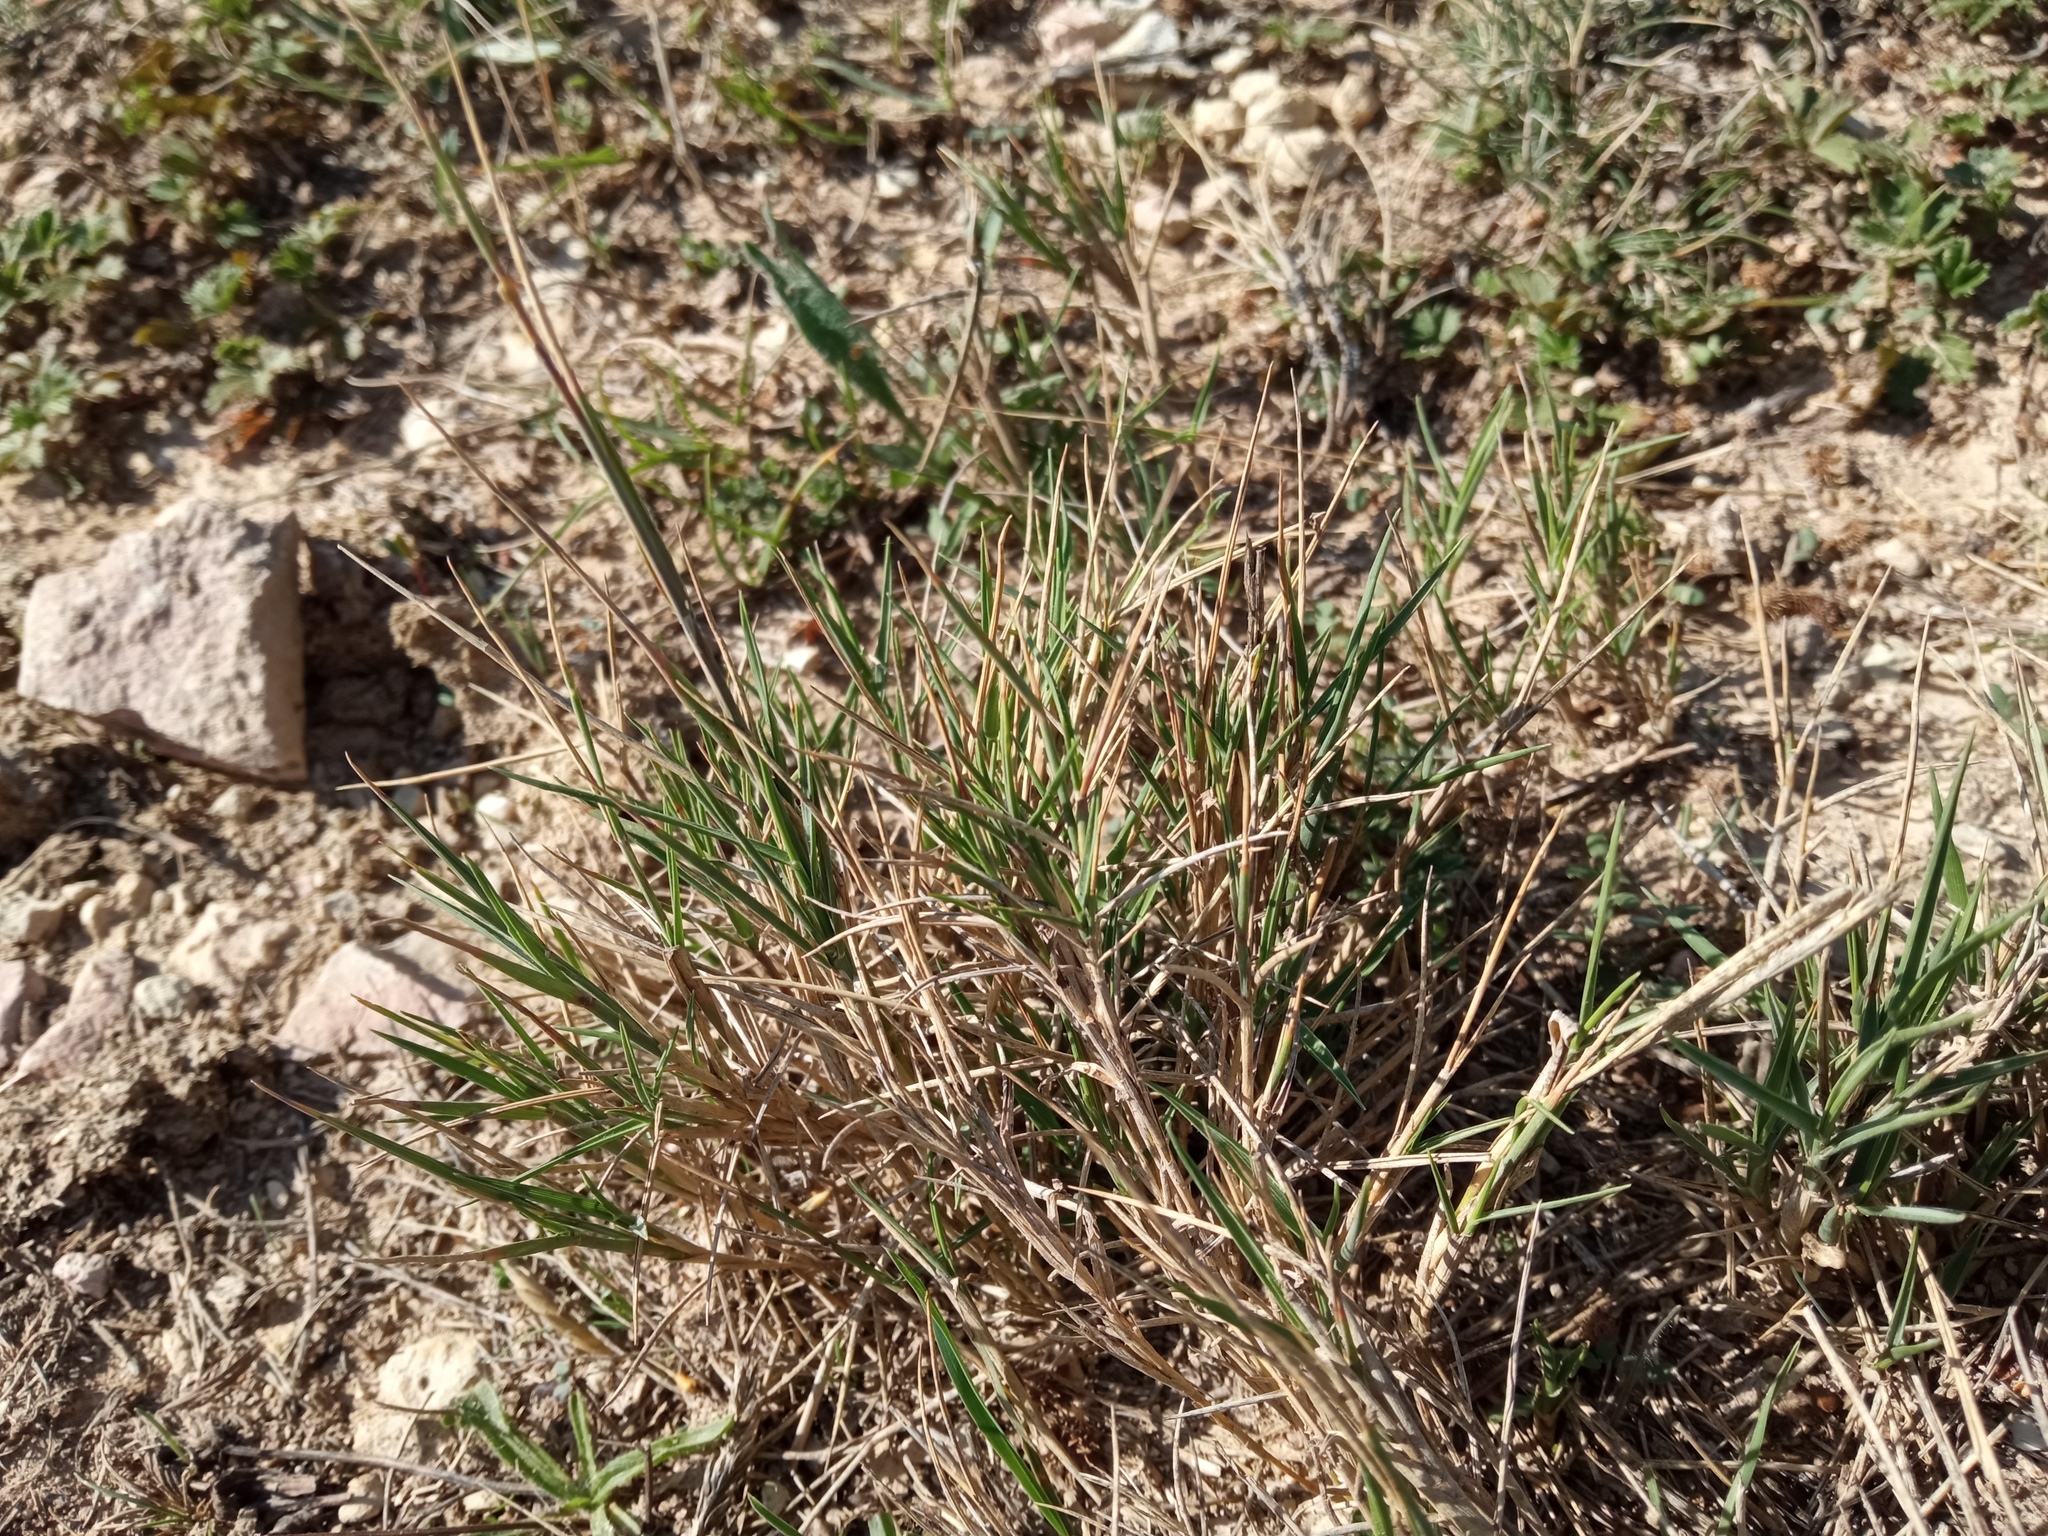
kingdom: Plantae
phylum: Tracheophyta
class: Liliopsida
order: Poales
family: Poaceae
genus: Brachypodium
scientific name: Brachypodium retusum
